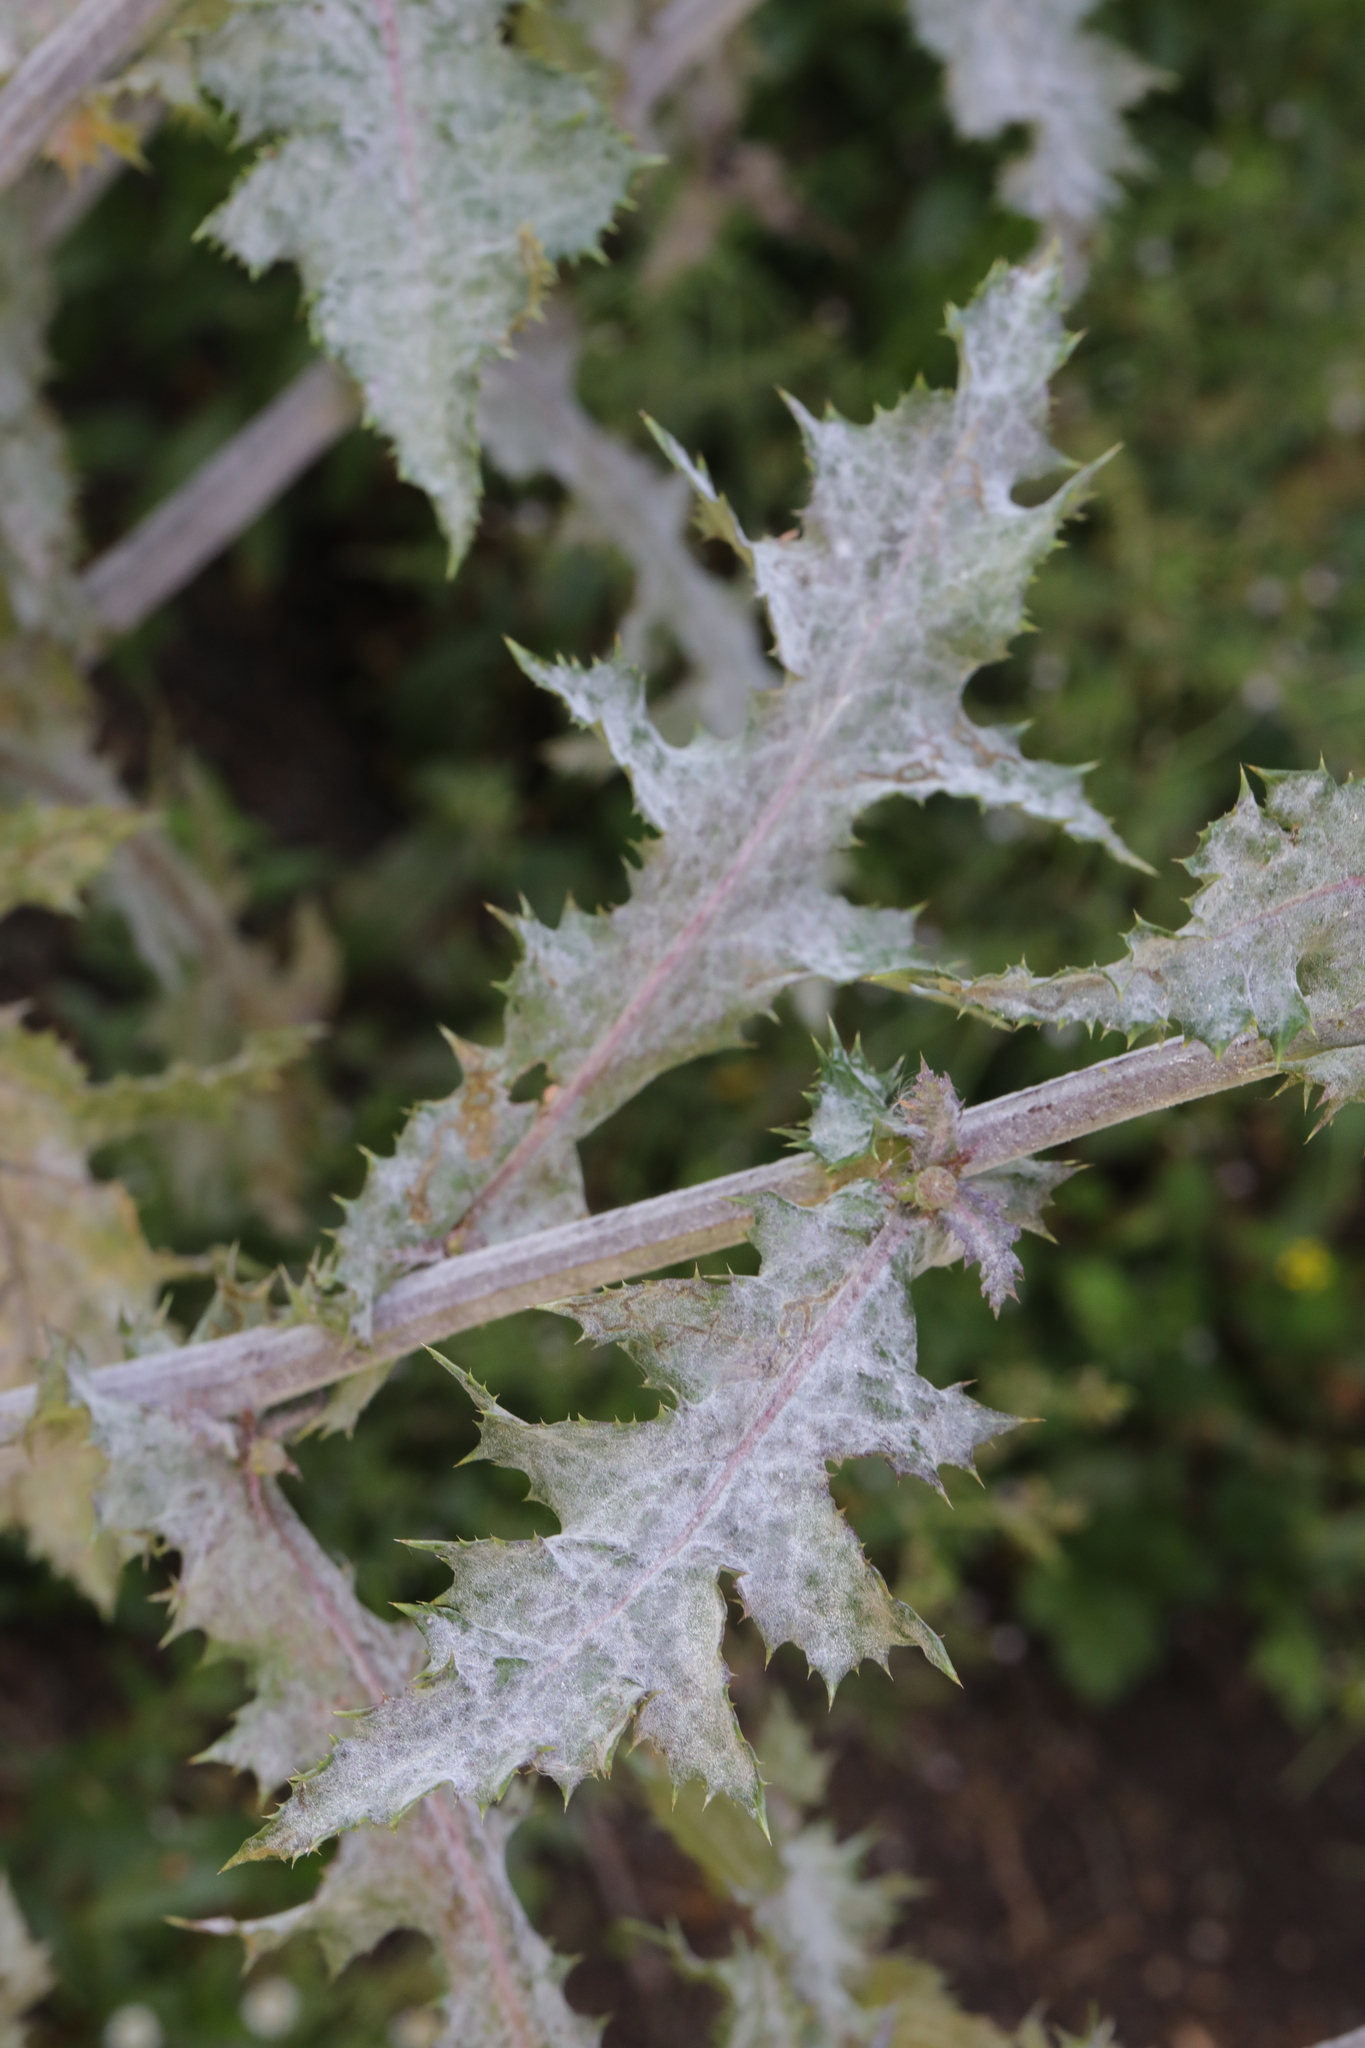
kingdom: Fungi
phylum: Ascomycota
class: Leotiomycetes
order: Helotiales
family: Erysiphaceae
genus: Golovinomyces
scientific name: Golovinomyces sonchicola
